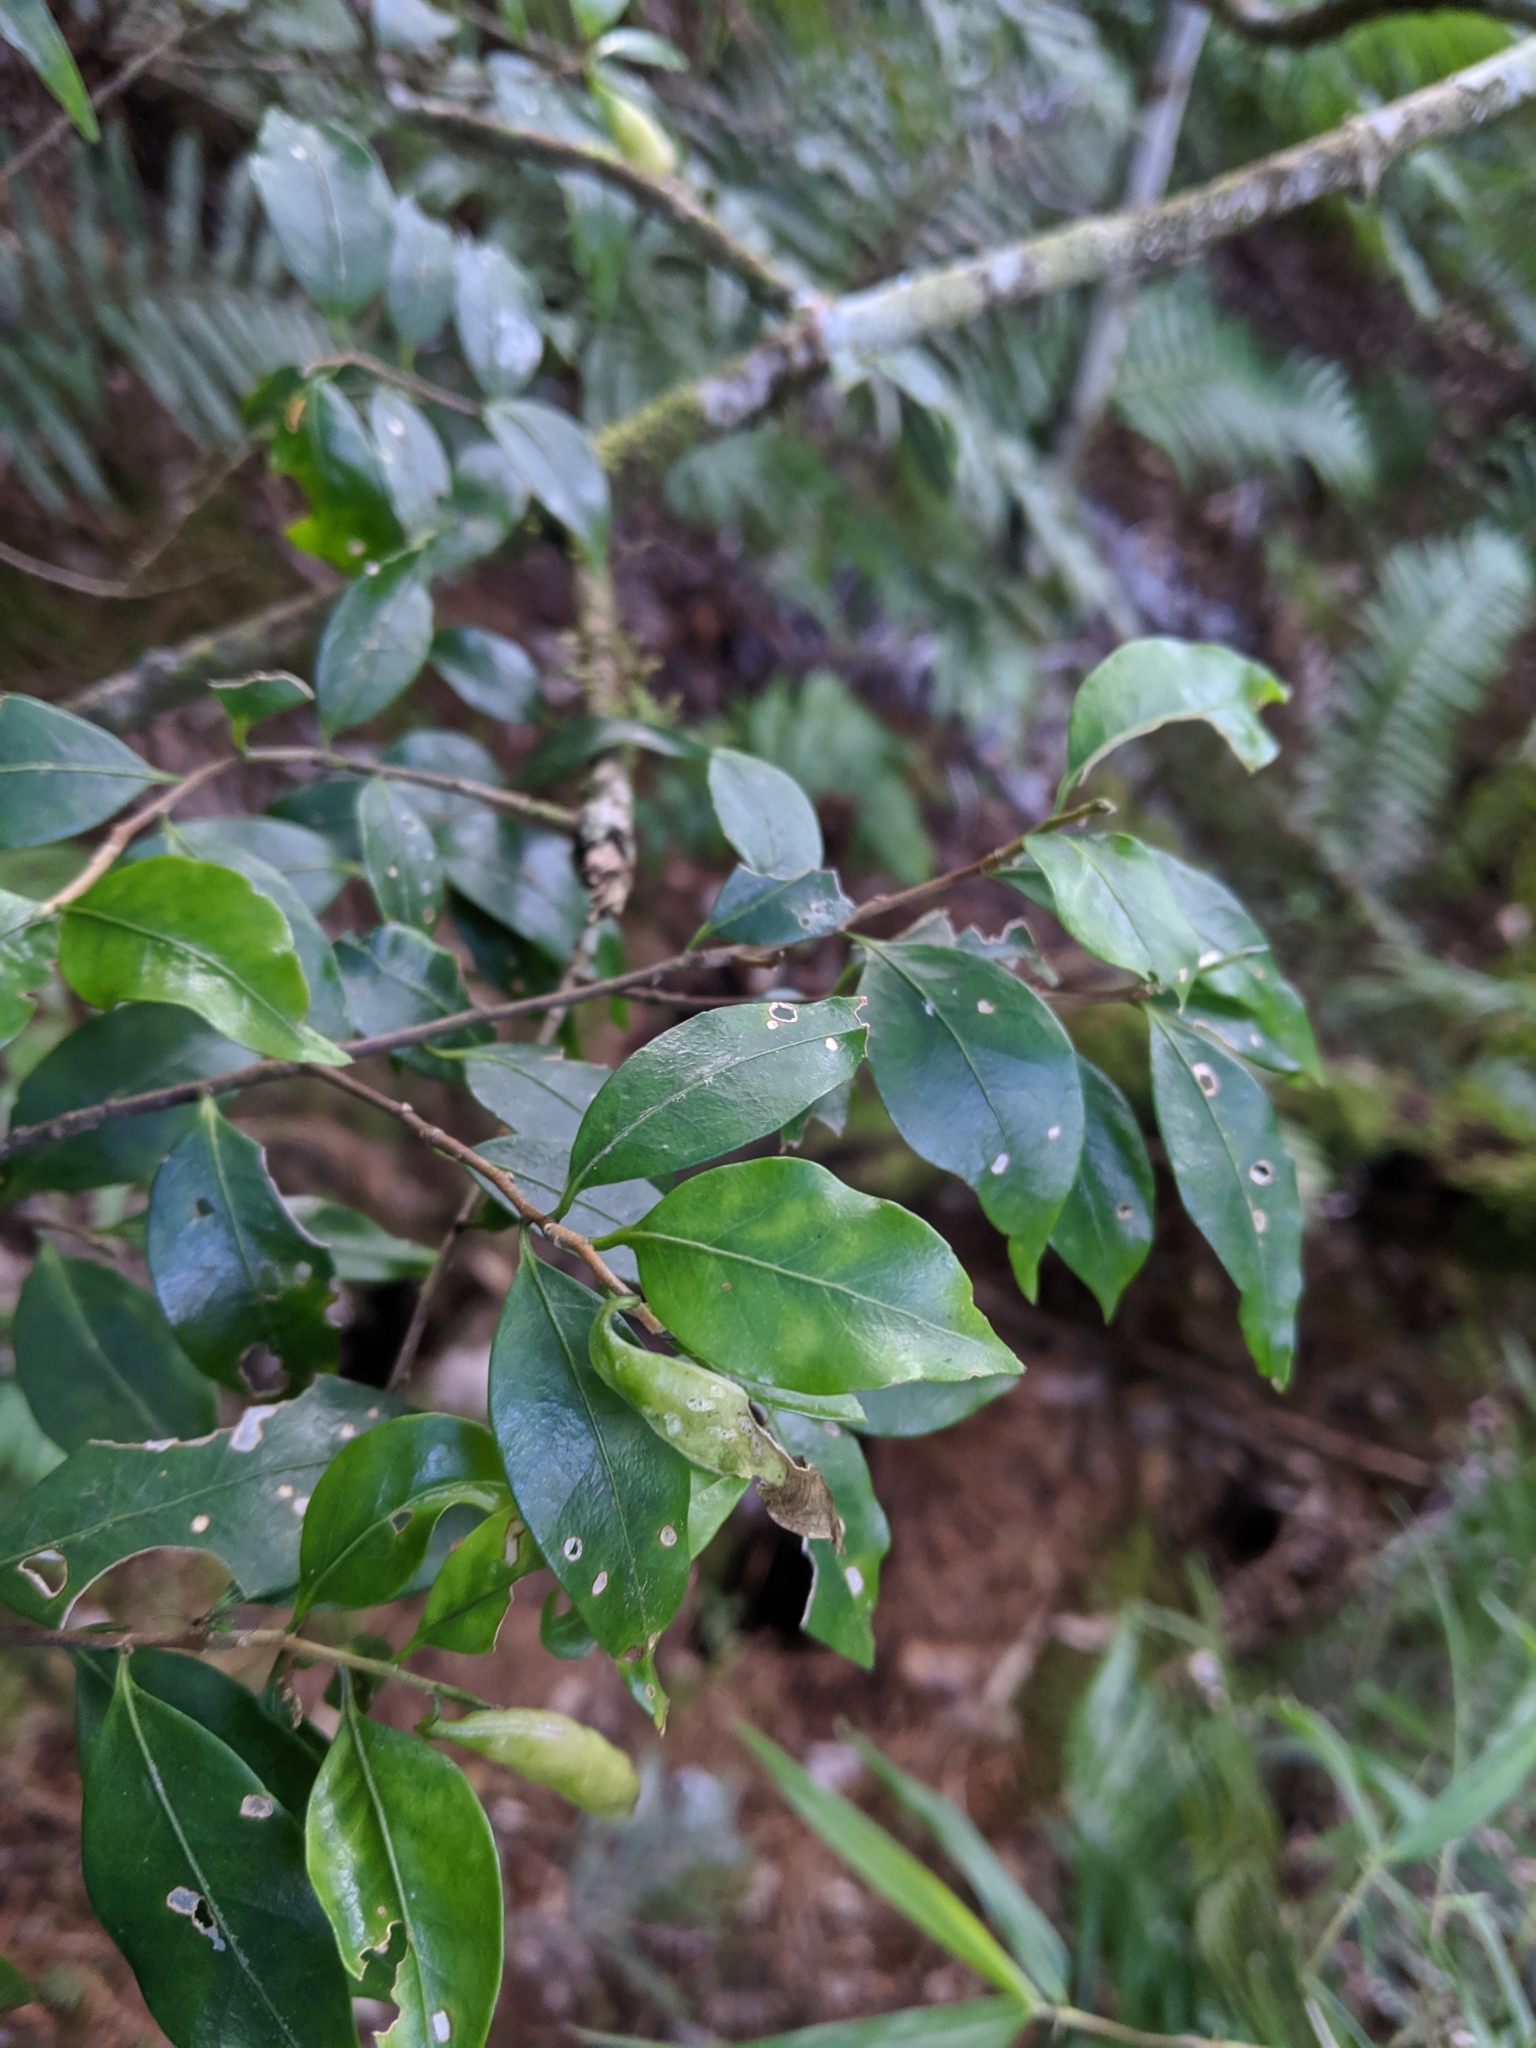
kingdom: Plantae
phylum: Tracheophyta
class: Magnoliopsida
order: Ericales
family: Symplocaceae
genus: Symplocos
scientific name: Symplocos anomala
